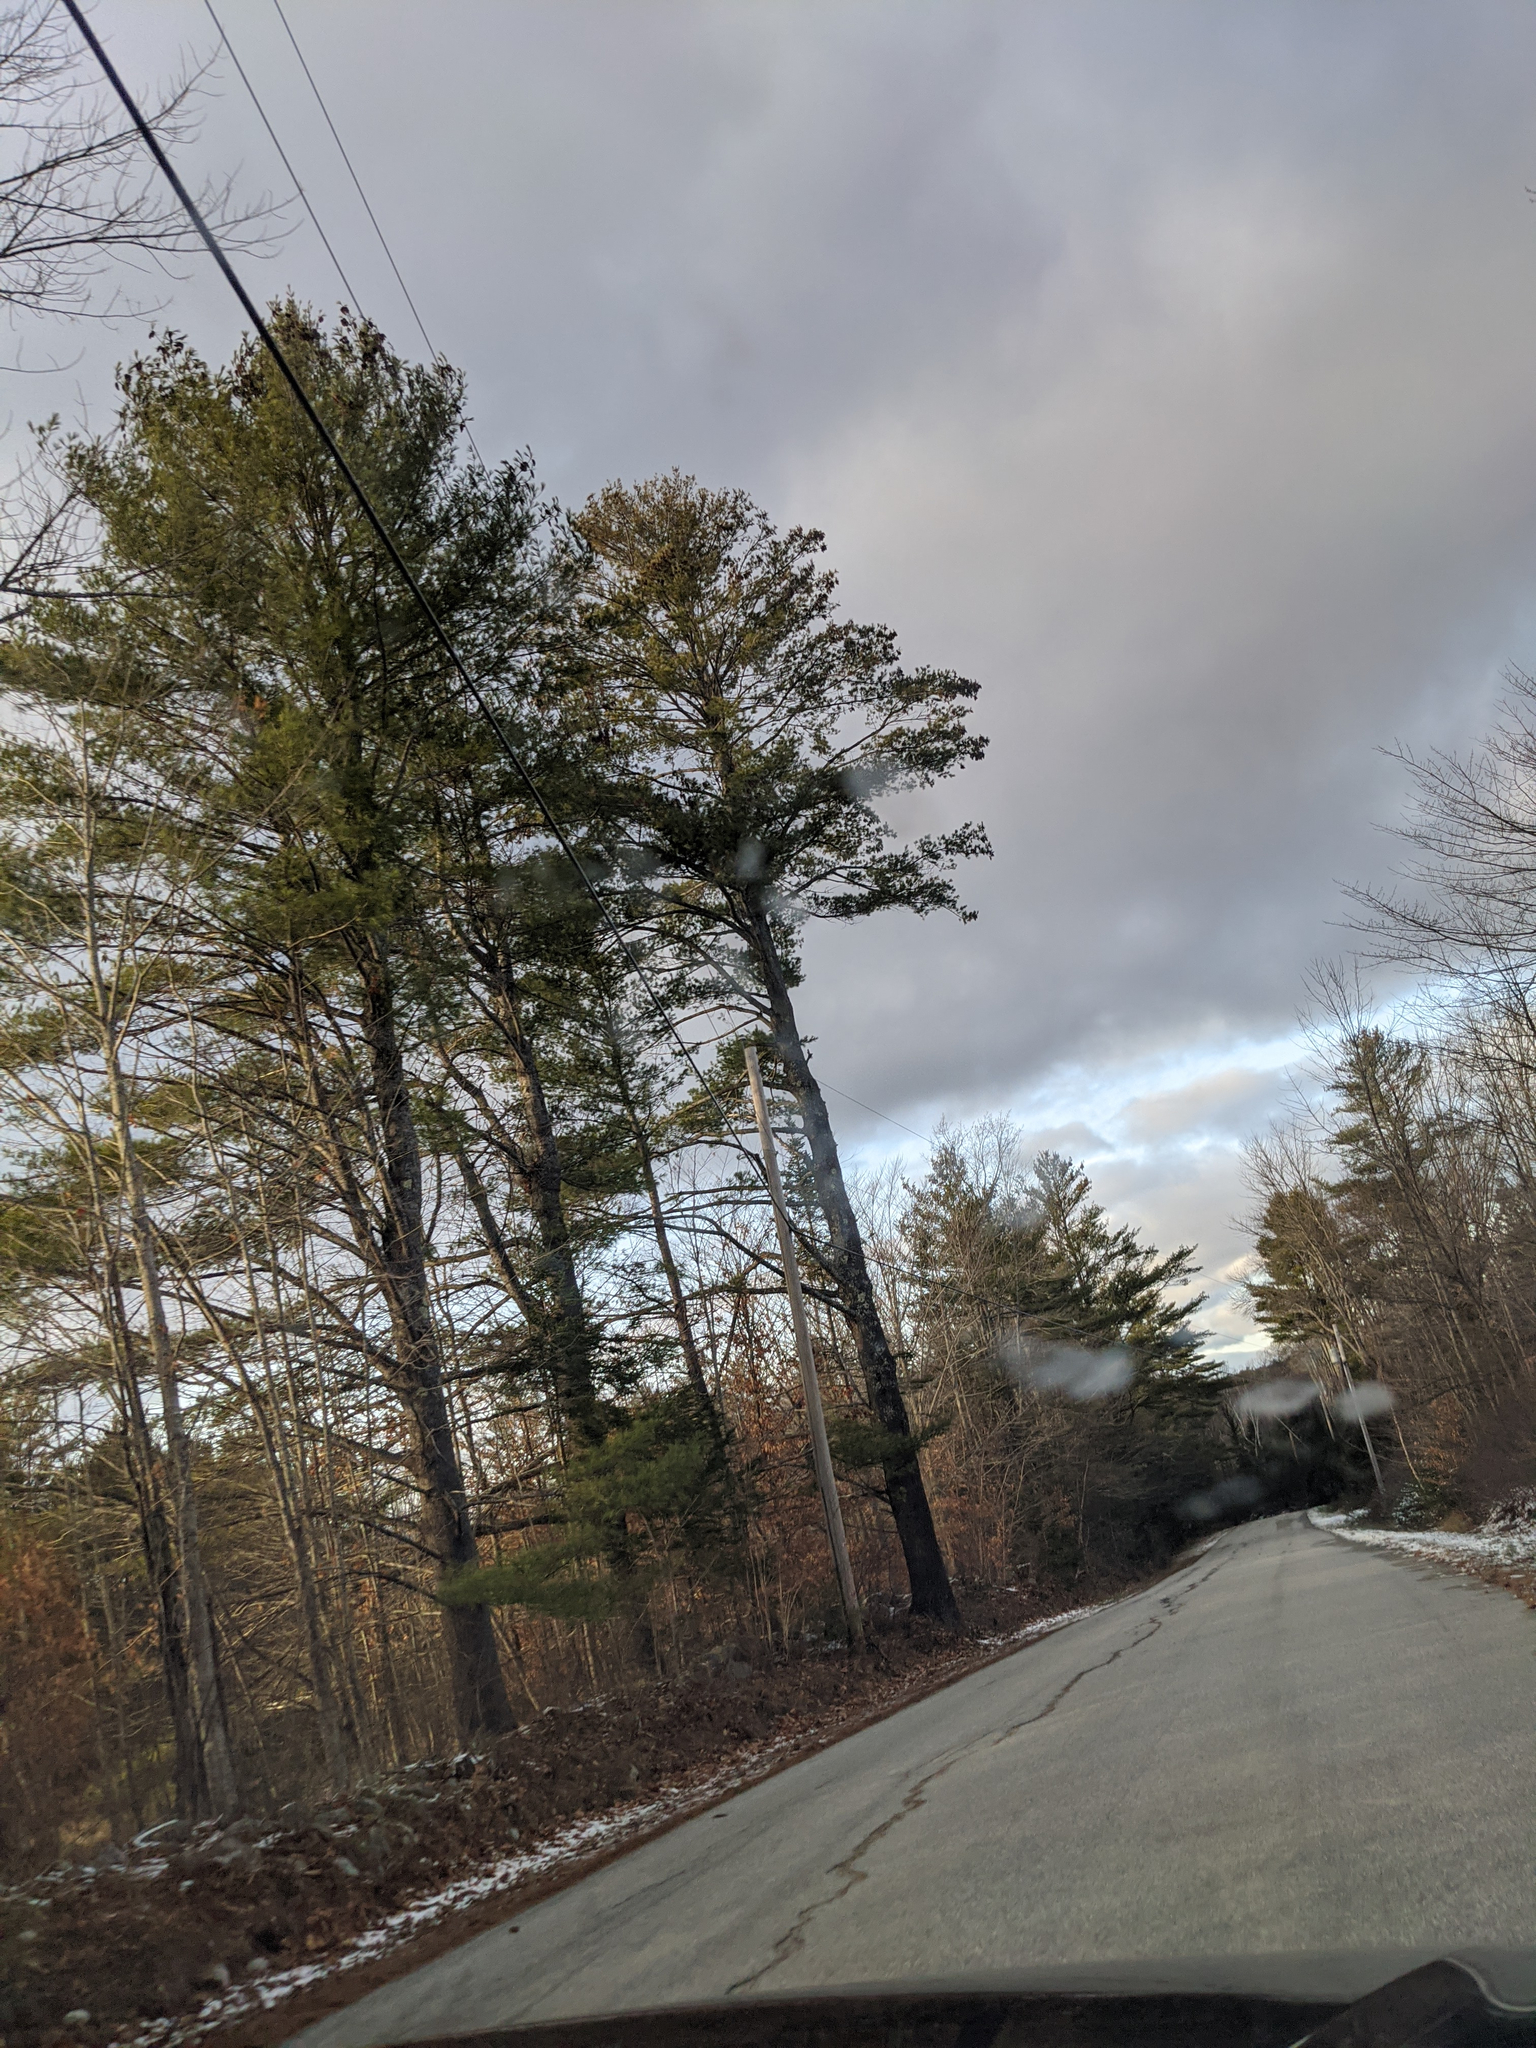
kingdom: Plantae
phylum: Tracheophyta
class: Pinopsida
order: Pinales
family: Pinaceae
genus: Pinus
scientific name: Pinus strobus
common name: Weymouth pine
